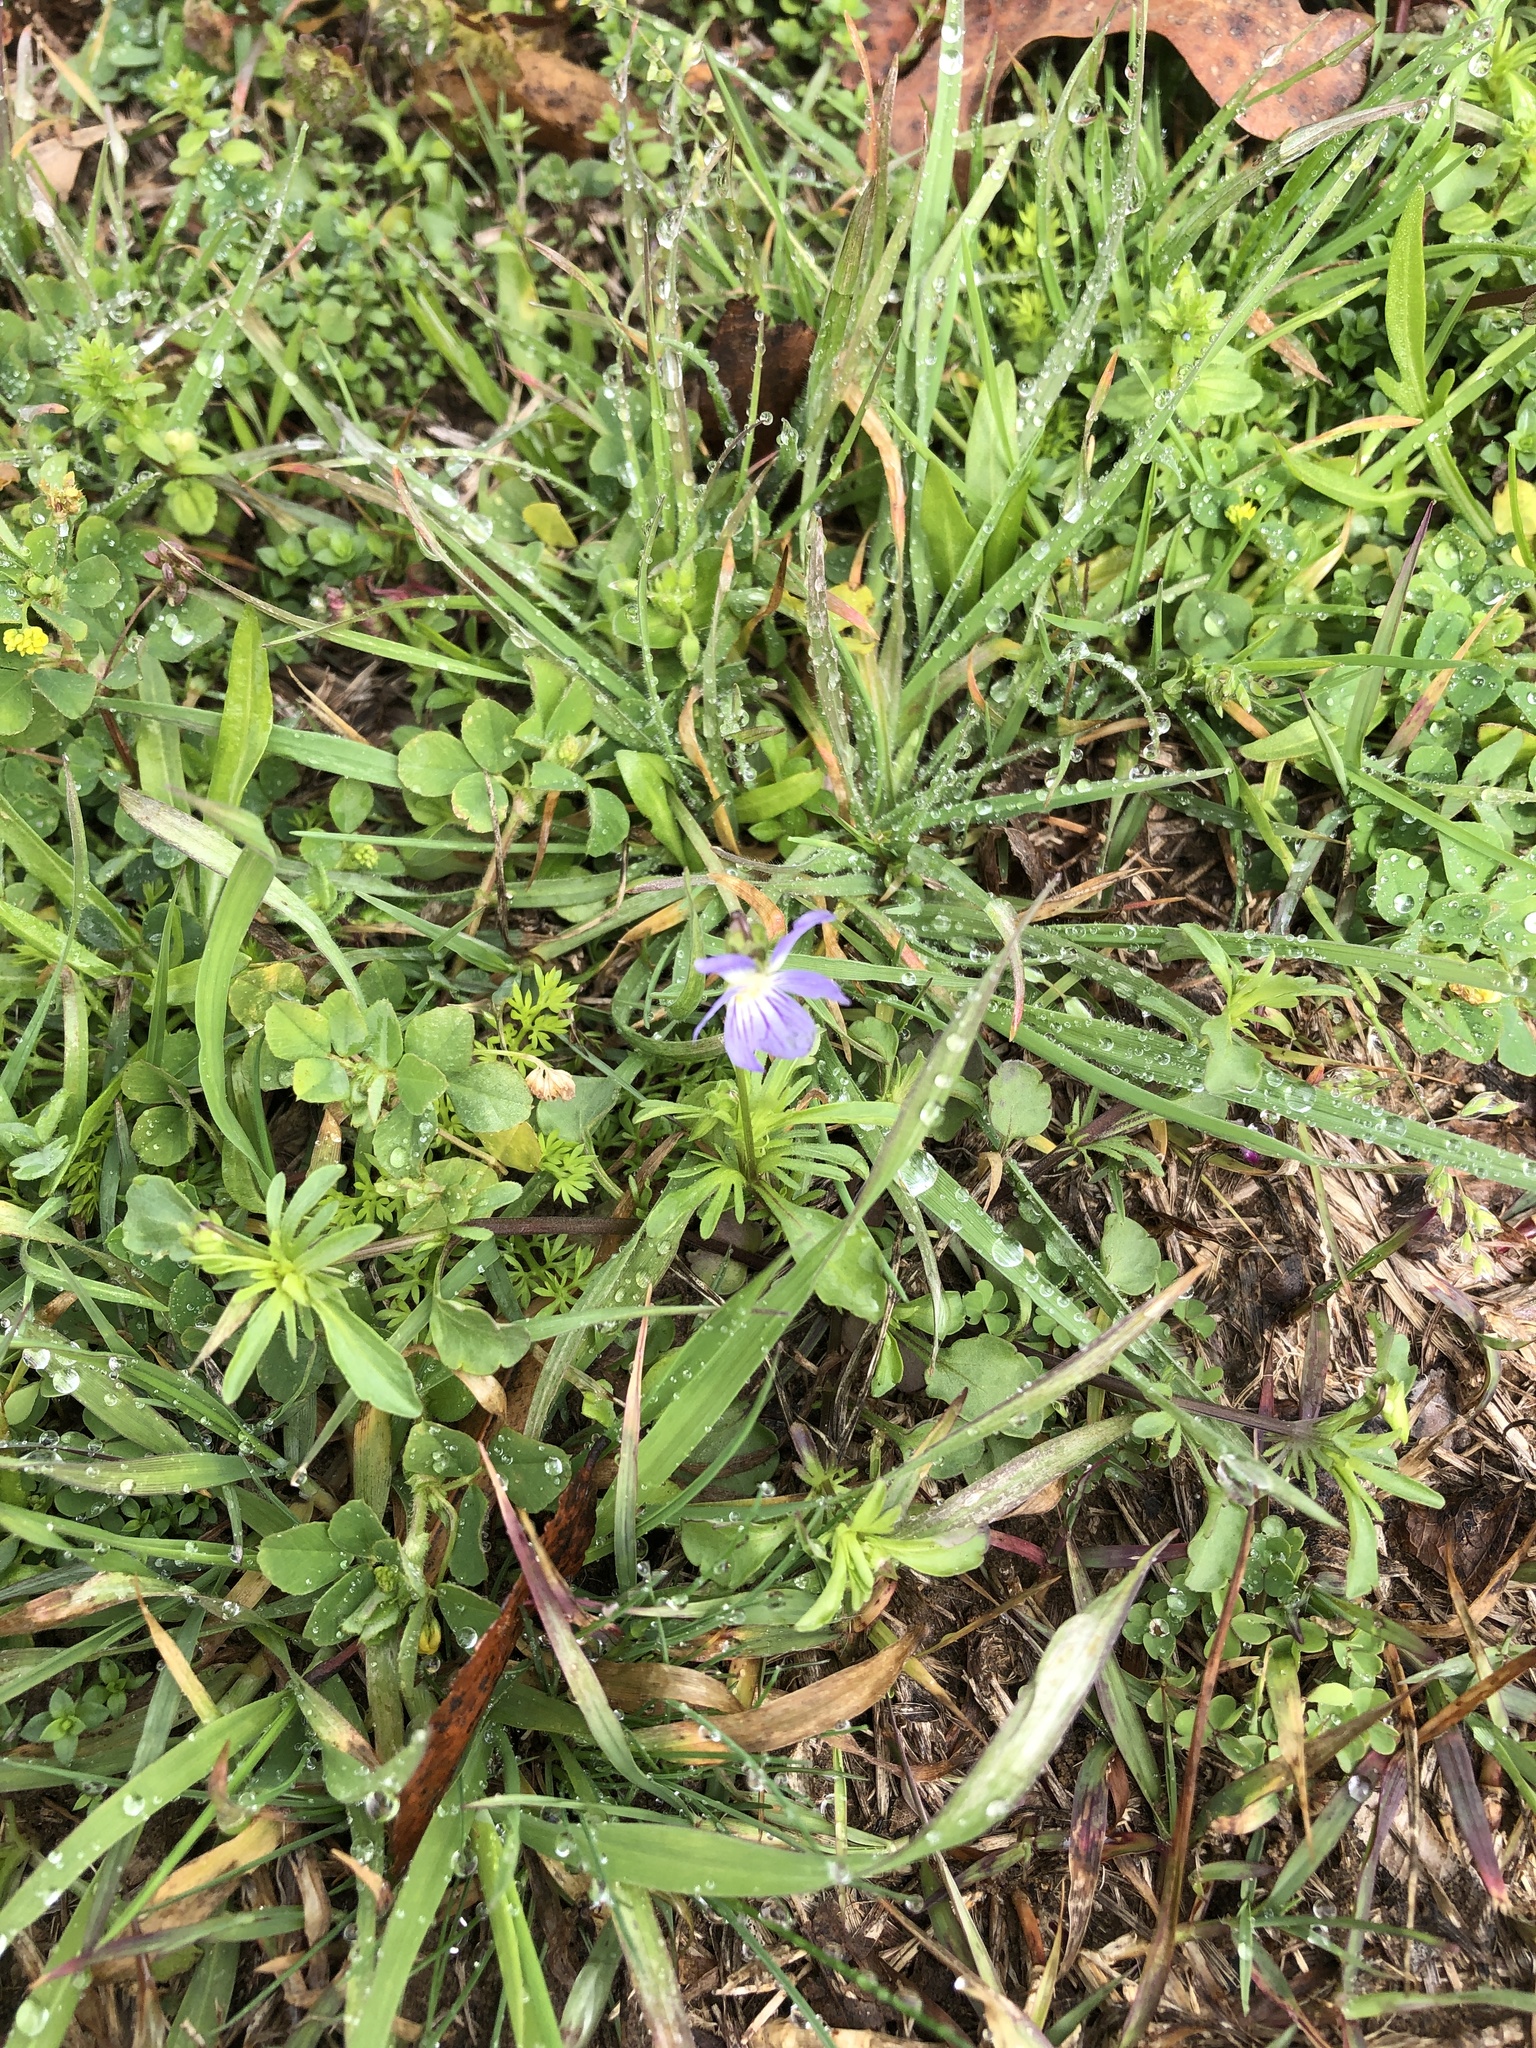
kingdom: Plantae
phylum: Tracheophyta
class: Magnoliopsida
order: Malpighiales
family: Violaceae
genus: Viola
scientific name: Viola rafinesquei
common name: American field pansy
